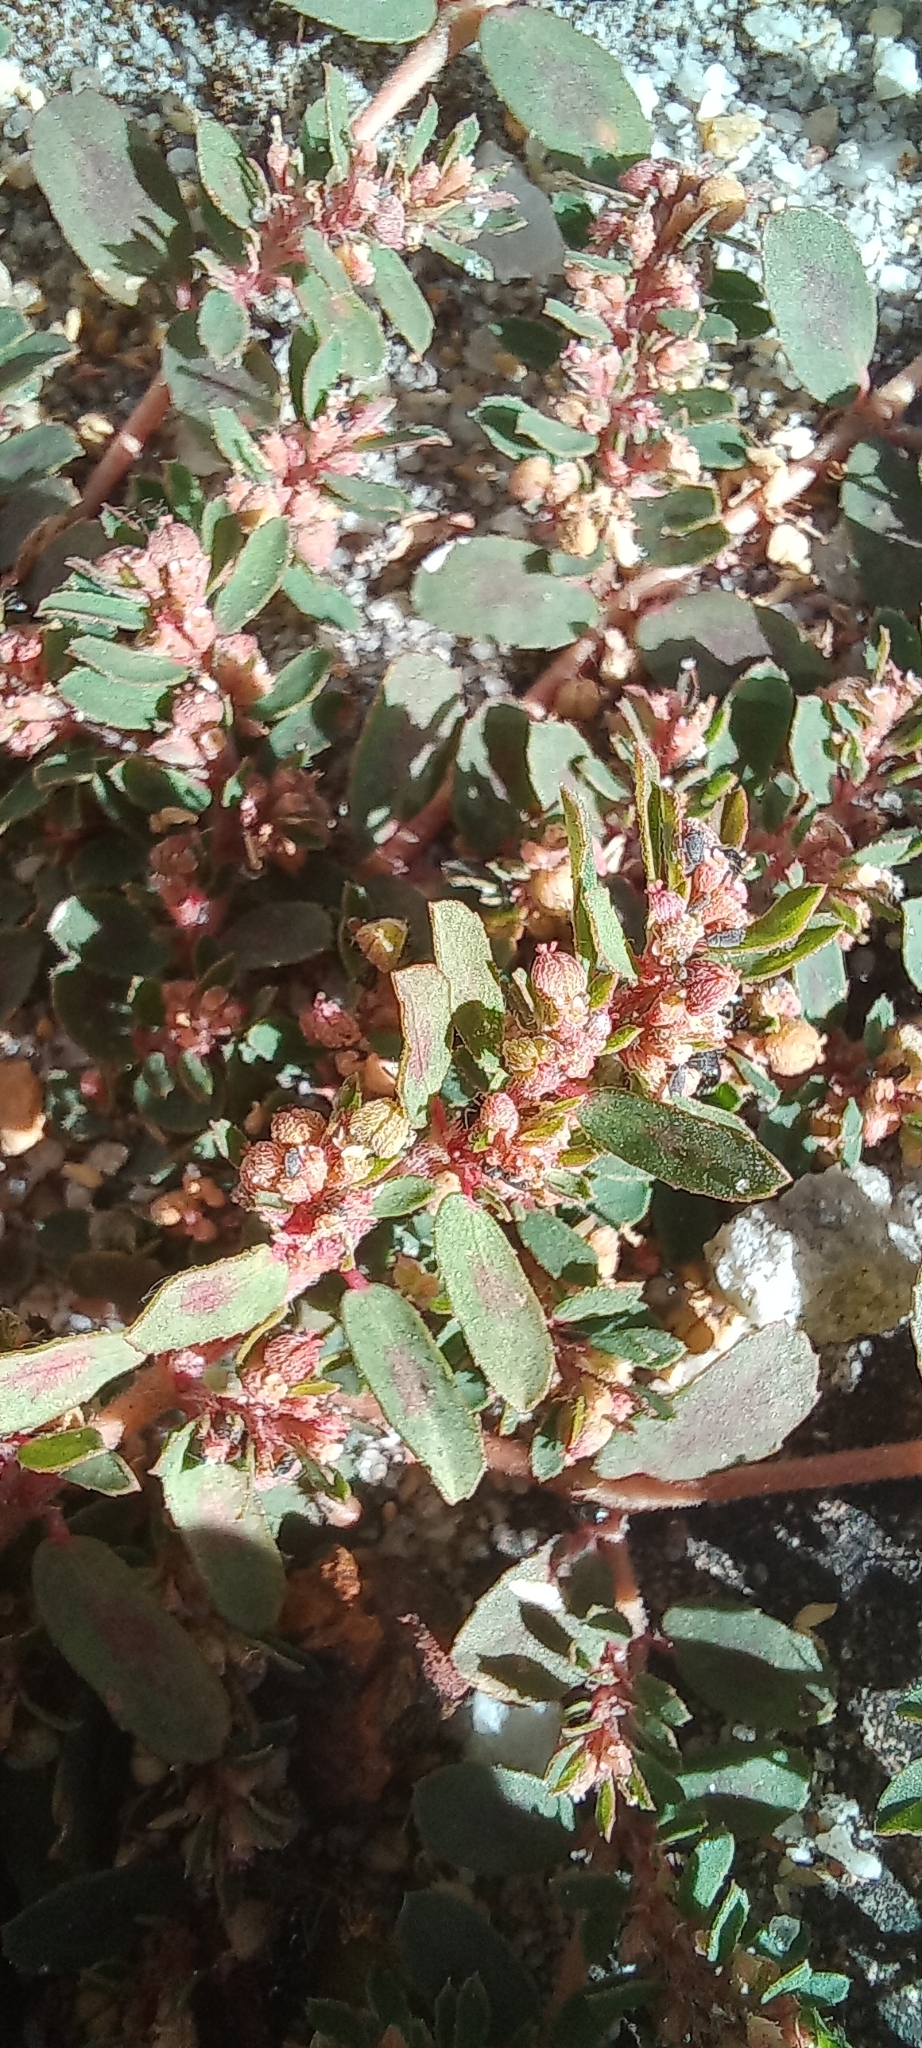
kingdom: Plantae
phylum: Tracheophyta
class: Magnoliopsida
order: Malpighiales
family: Euphorbiaceae
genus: Euphorbia
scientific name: Euphorbia maculata
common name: Spotted spurge
